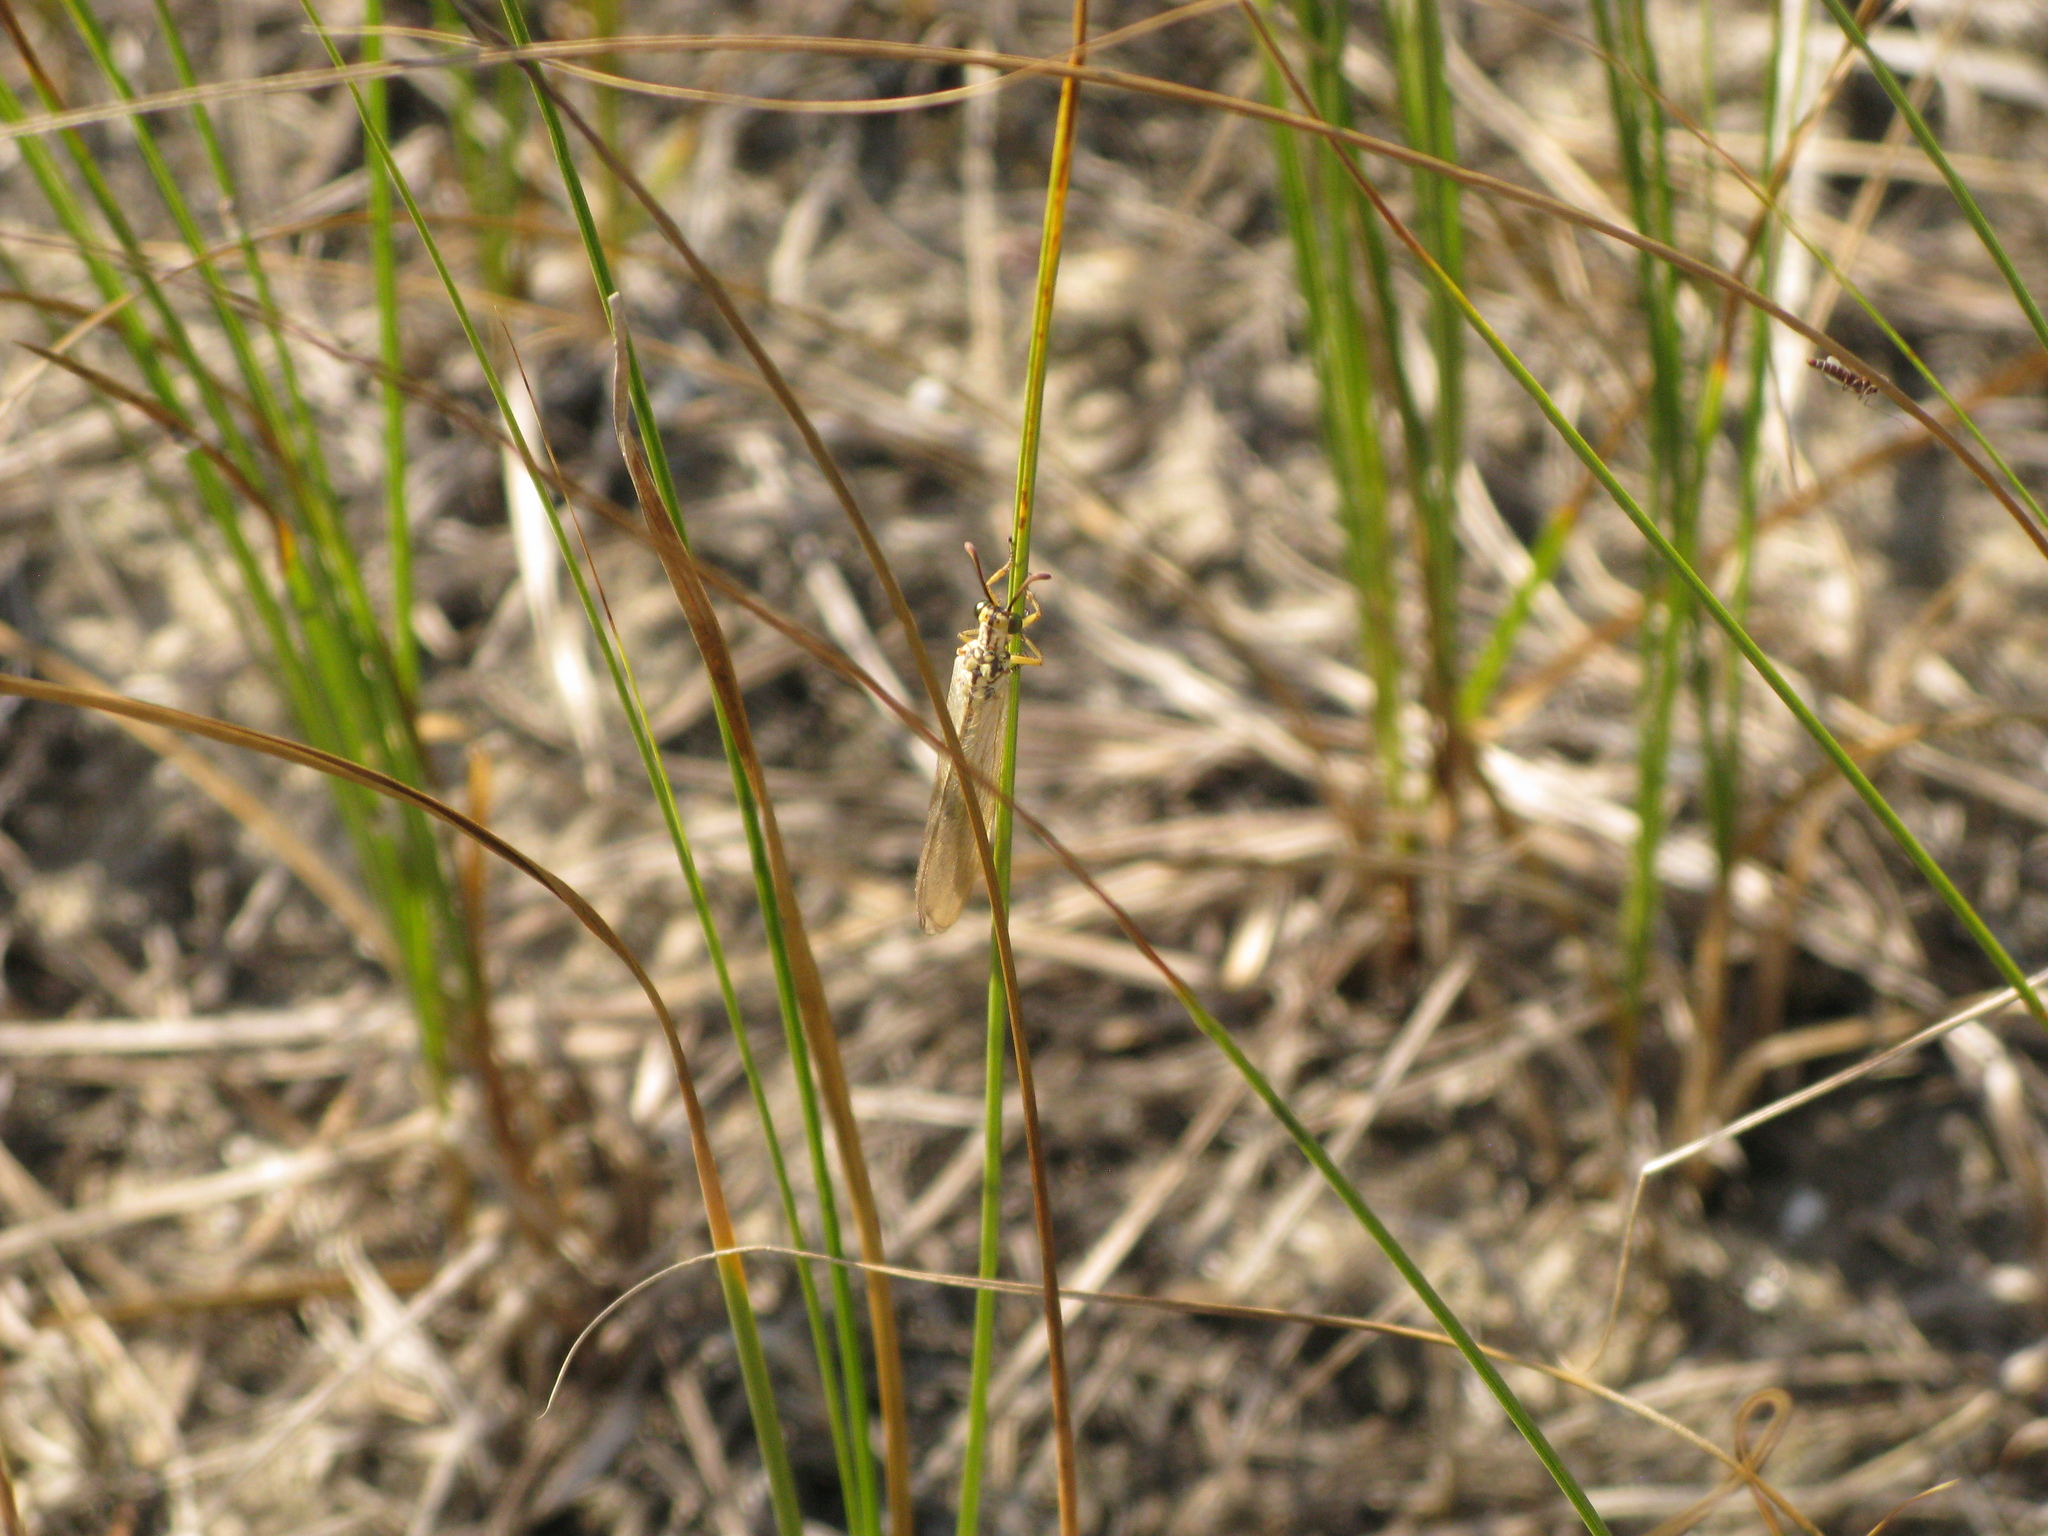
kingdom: Animalia
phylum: Arthropoda
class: Insecta
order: Neuroptera
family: Myrmeleontidae
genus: Myrmecaelurus
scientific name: Myrmecaelurus trigrammus
